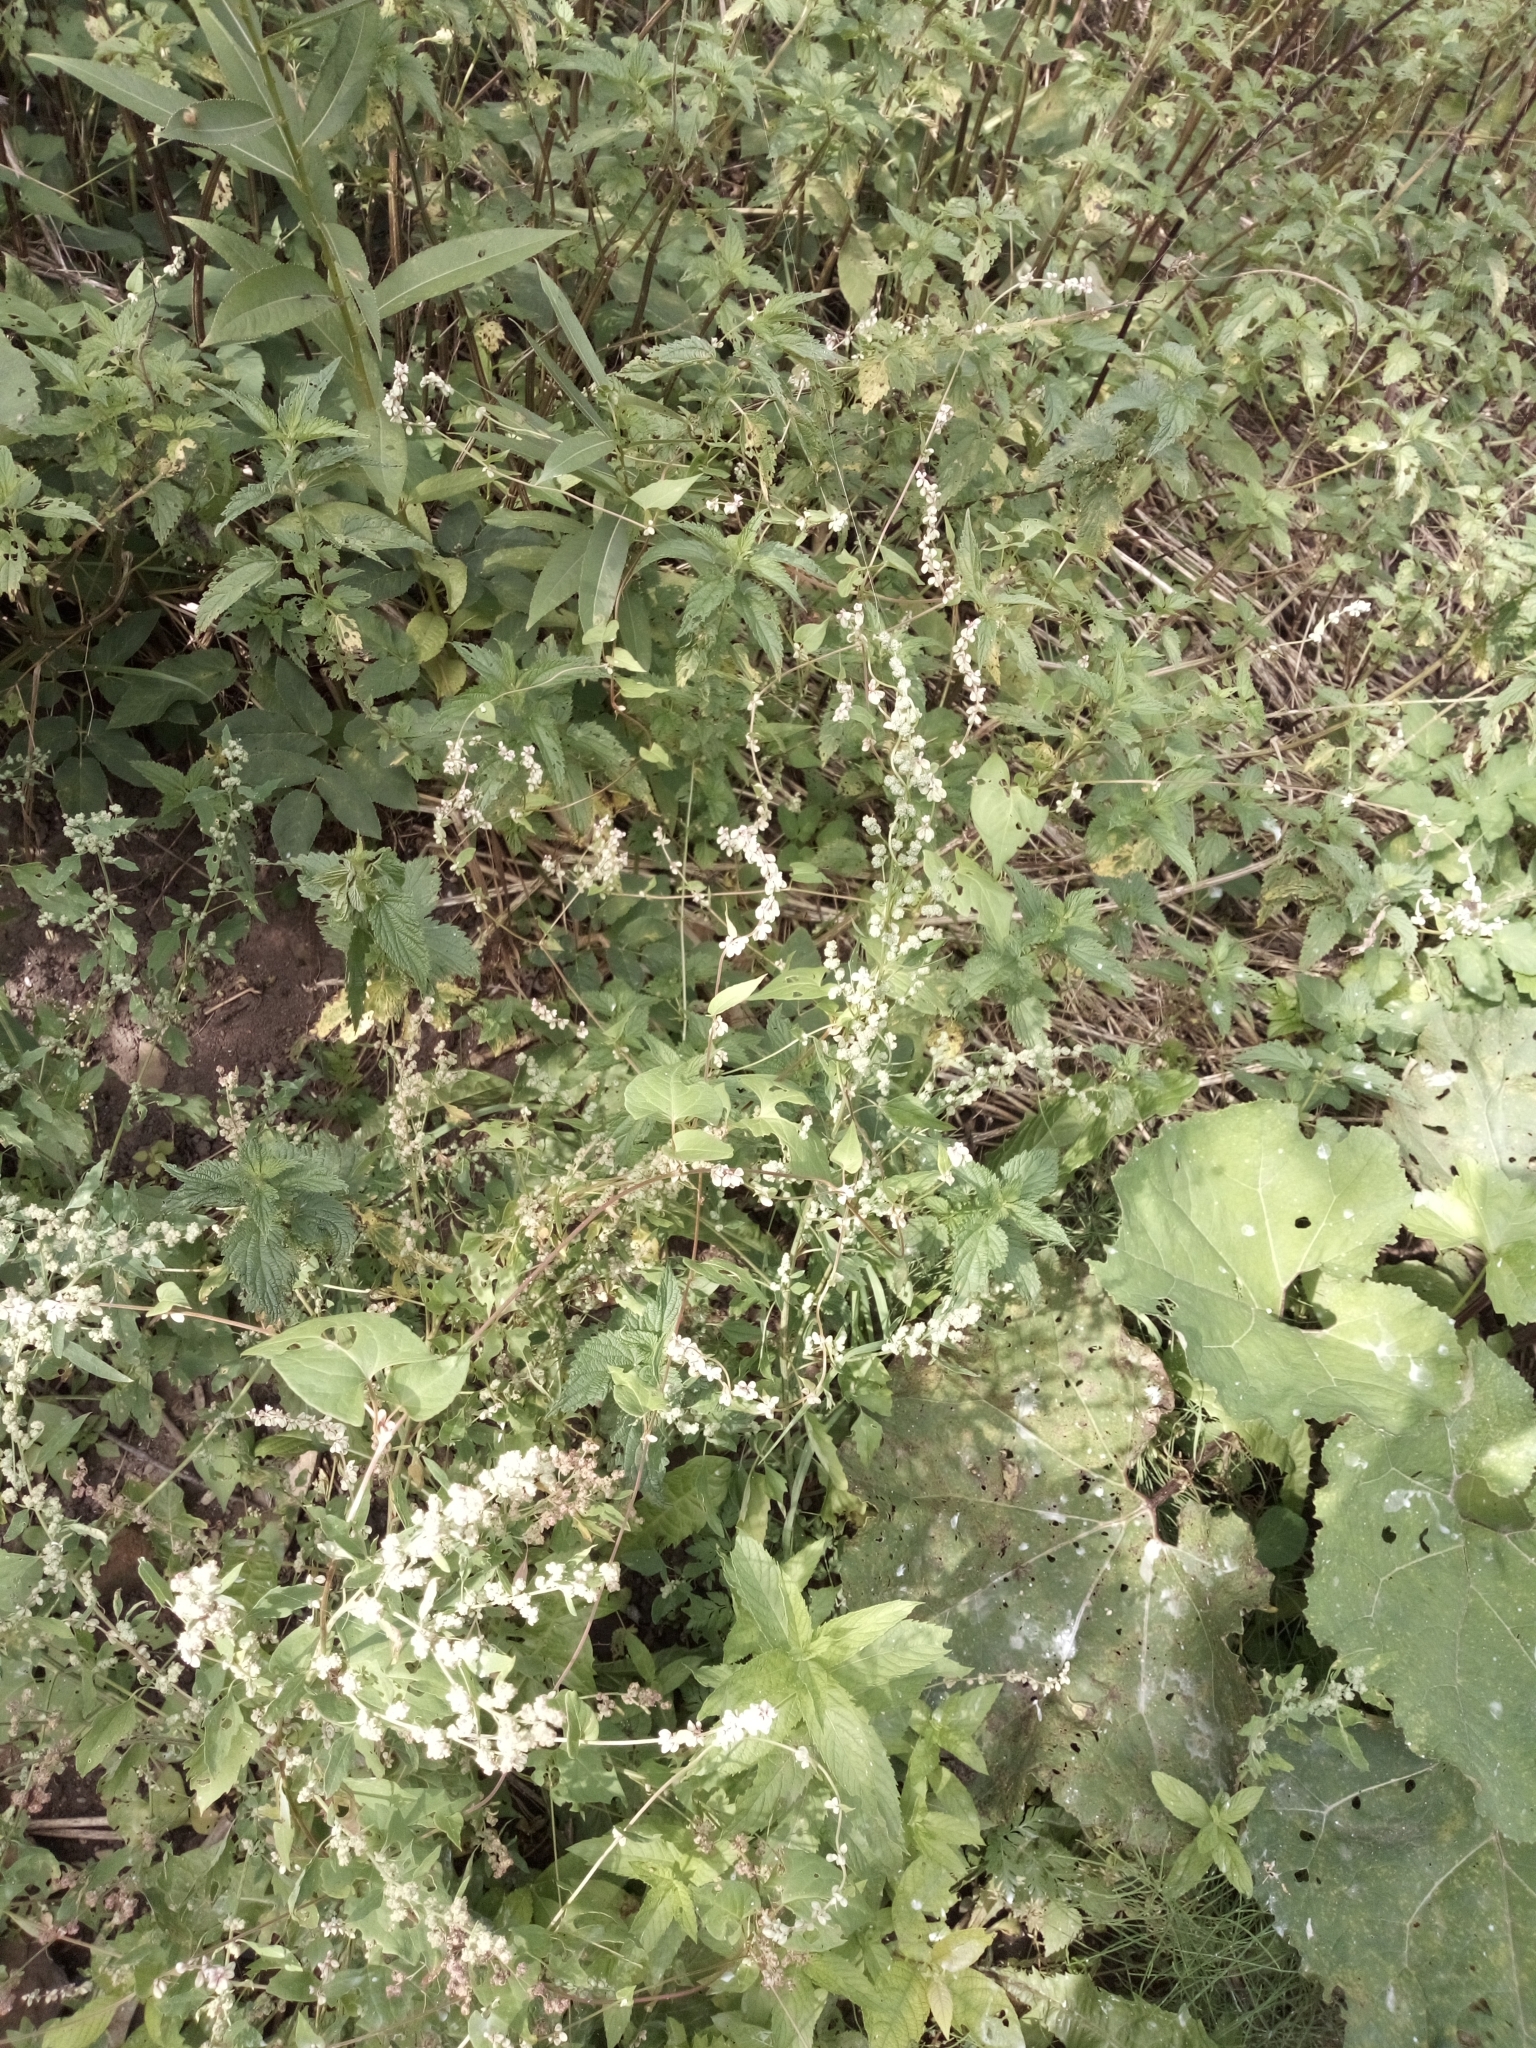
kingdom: Plantae
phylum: Tracheophyta
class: Magnoliopsida
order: Caryophyllales
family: Polygonaceae
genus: Fallopia
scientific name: Fallopia convolvulus
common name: Black bindweed
